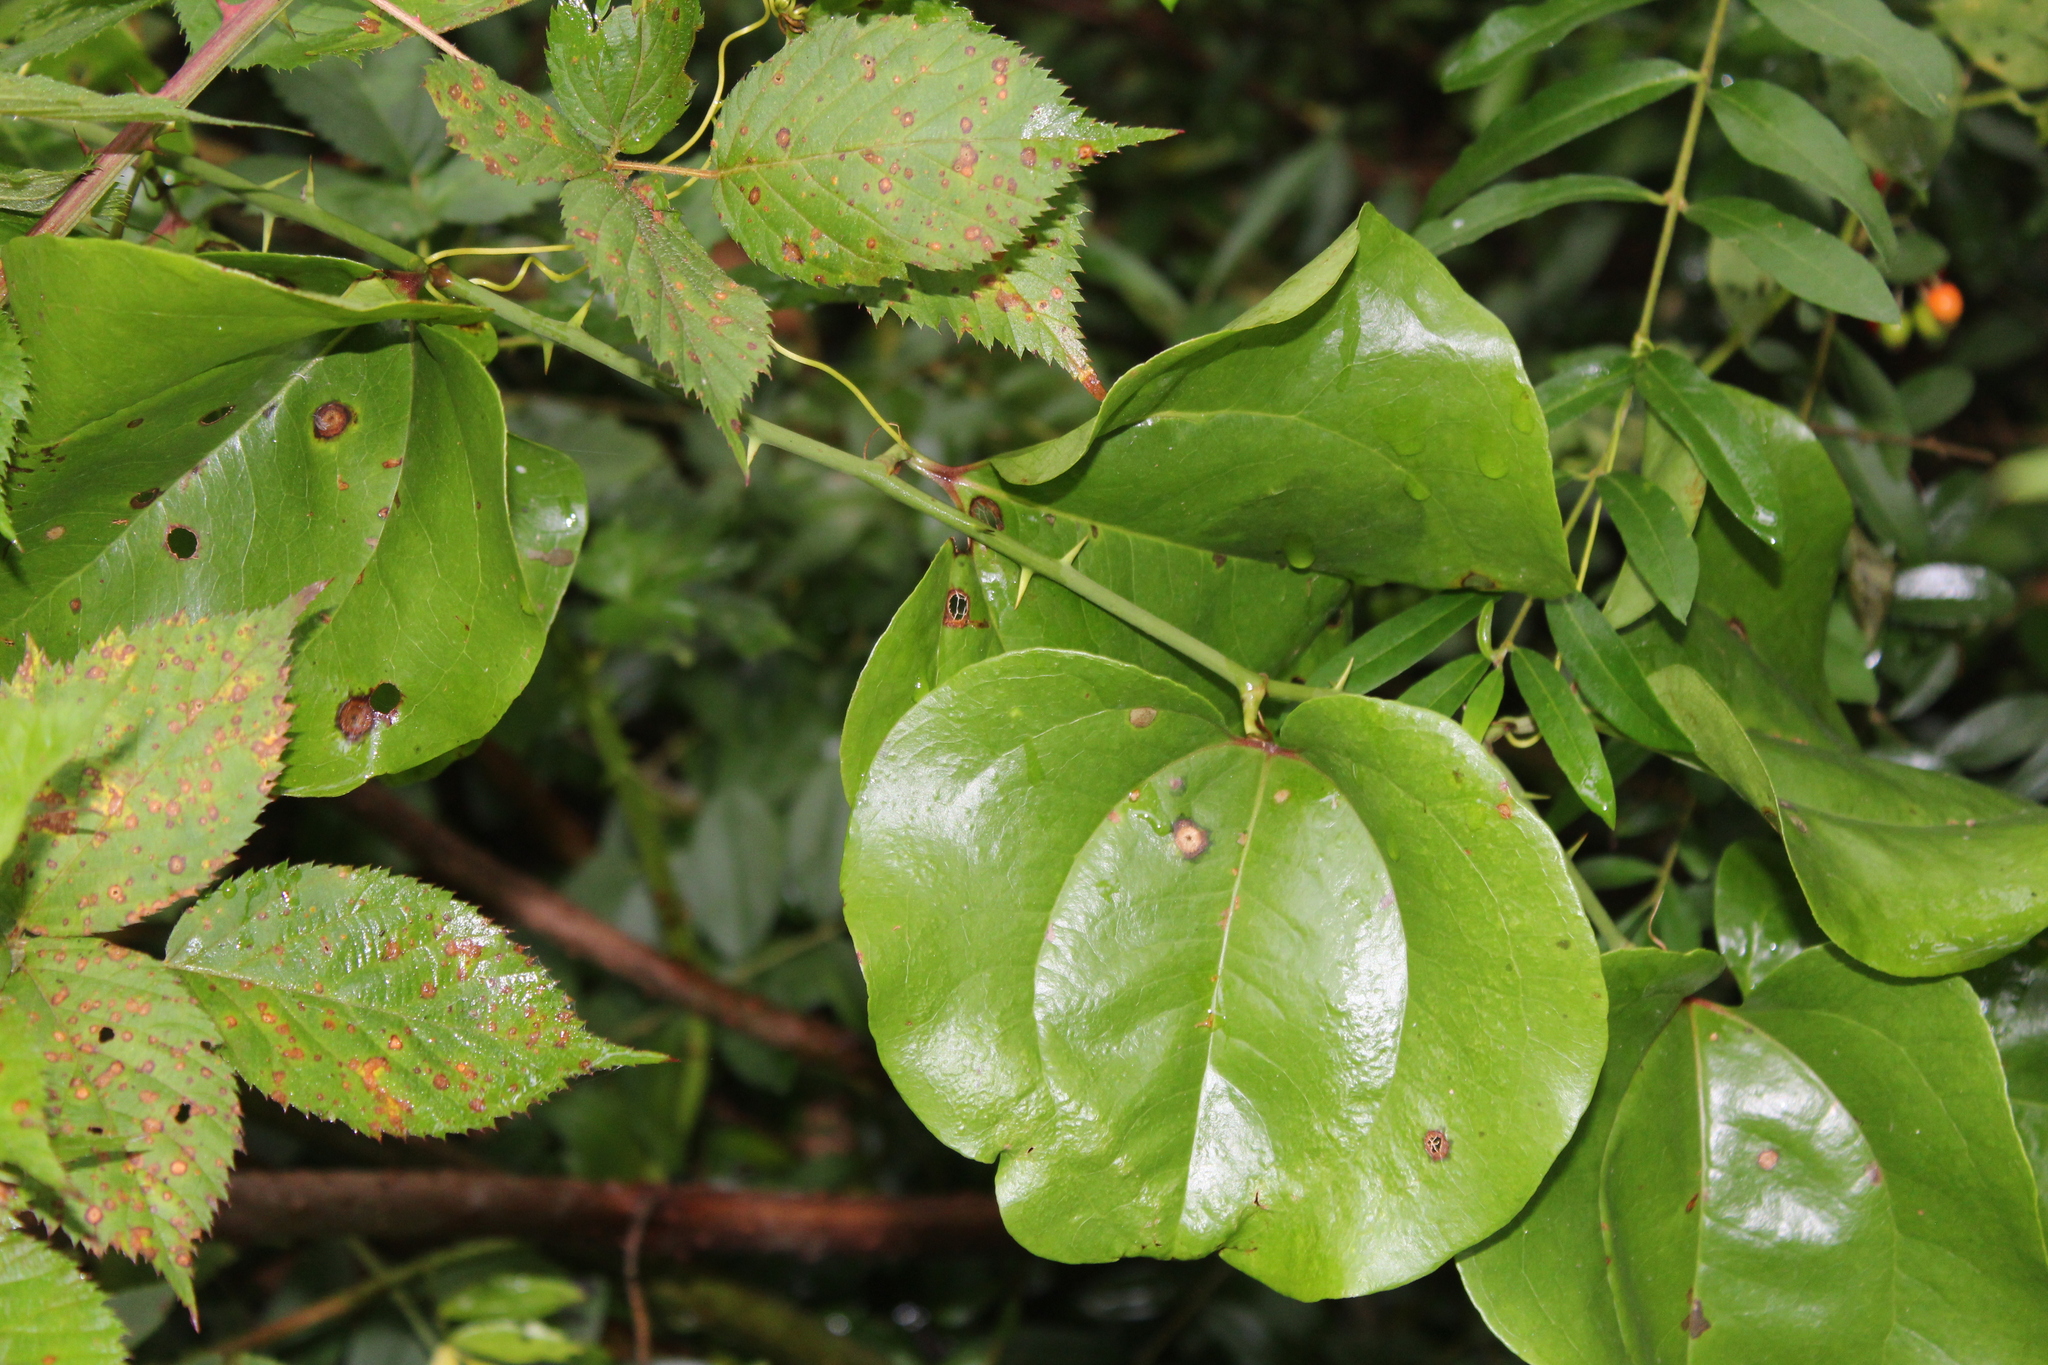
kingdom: Plantae
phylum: Tracheophyta
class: Liliopsida
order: Liliales
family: Smilacaceae
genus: Smilax
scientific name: Smilax rotundifolia
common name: Bullbriar
